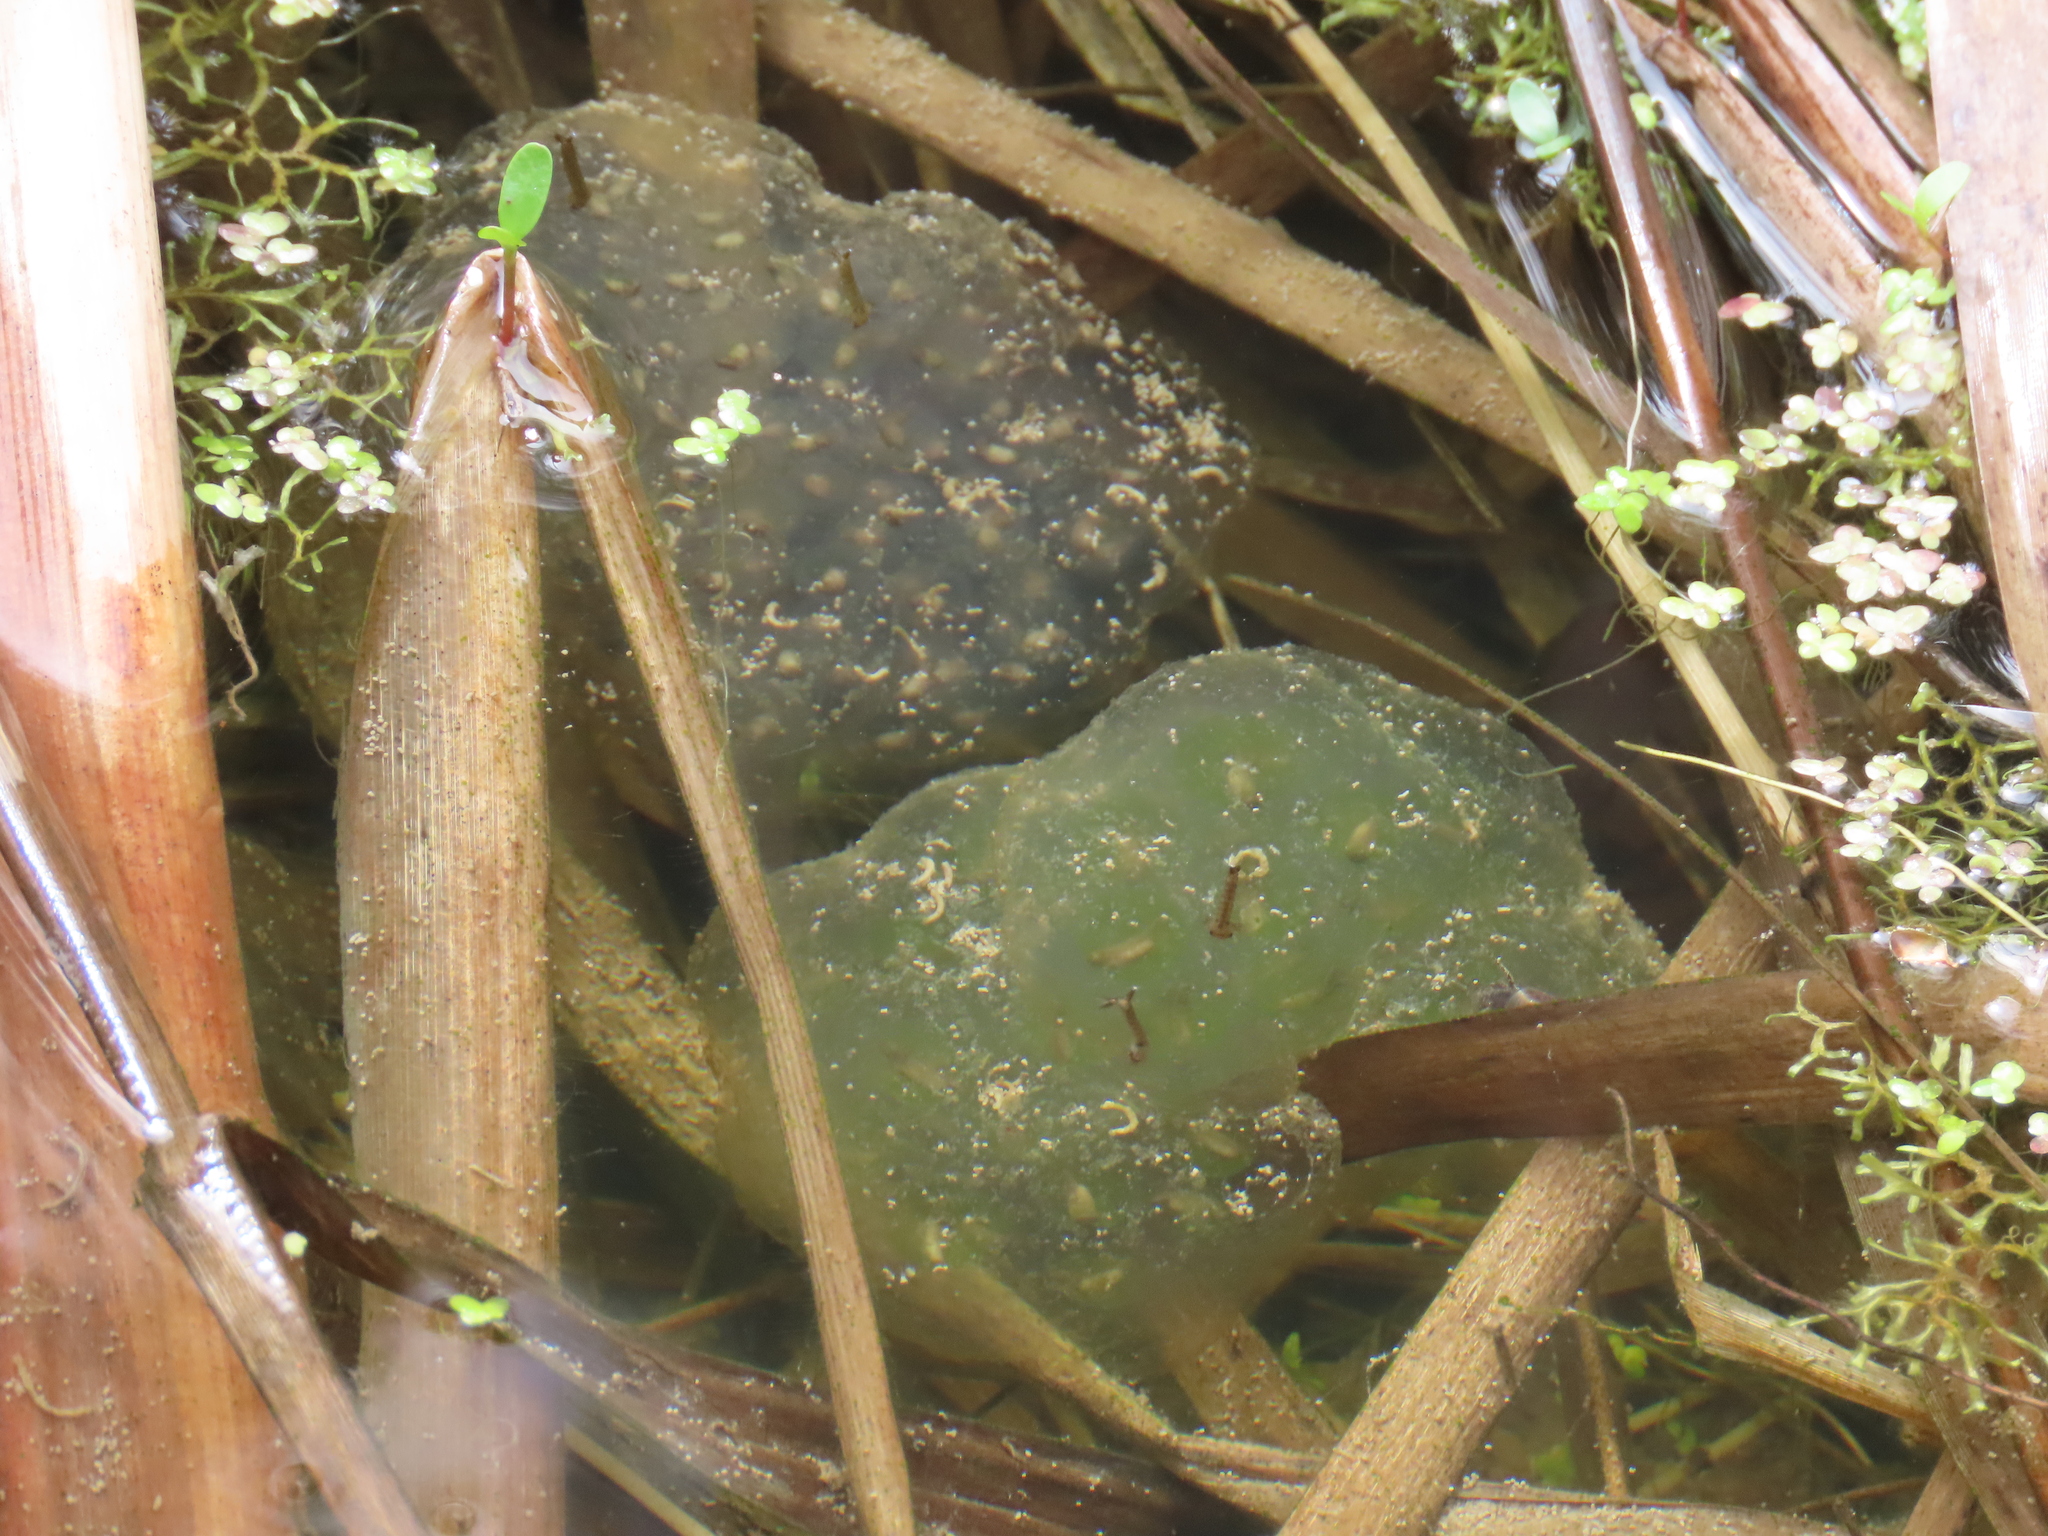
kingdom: Animalia
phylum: Chordata
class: Amphibia
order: Caudata
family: Ambystomatidae
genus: Ambystoma
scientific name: Ambystoma maculatum
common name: Spotted salamander
